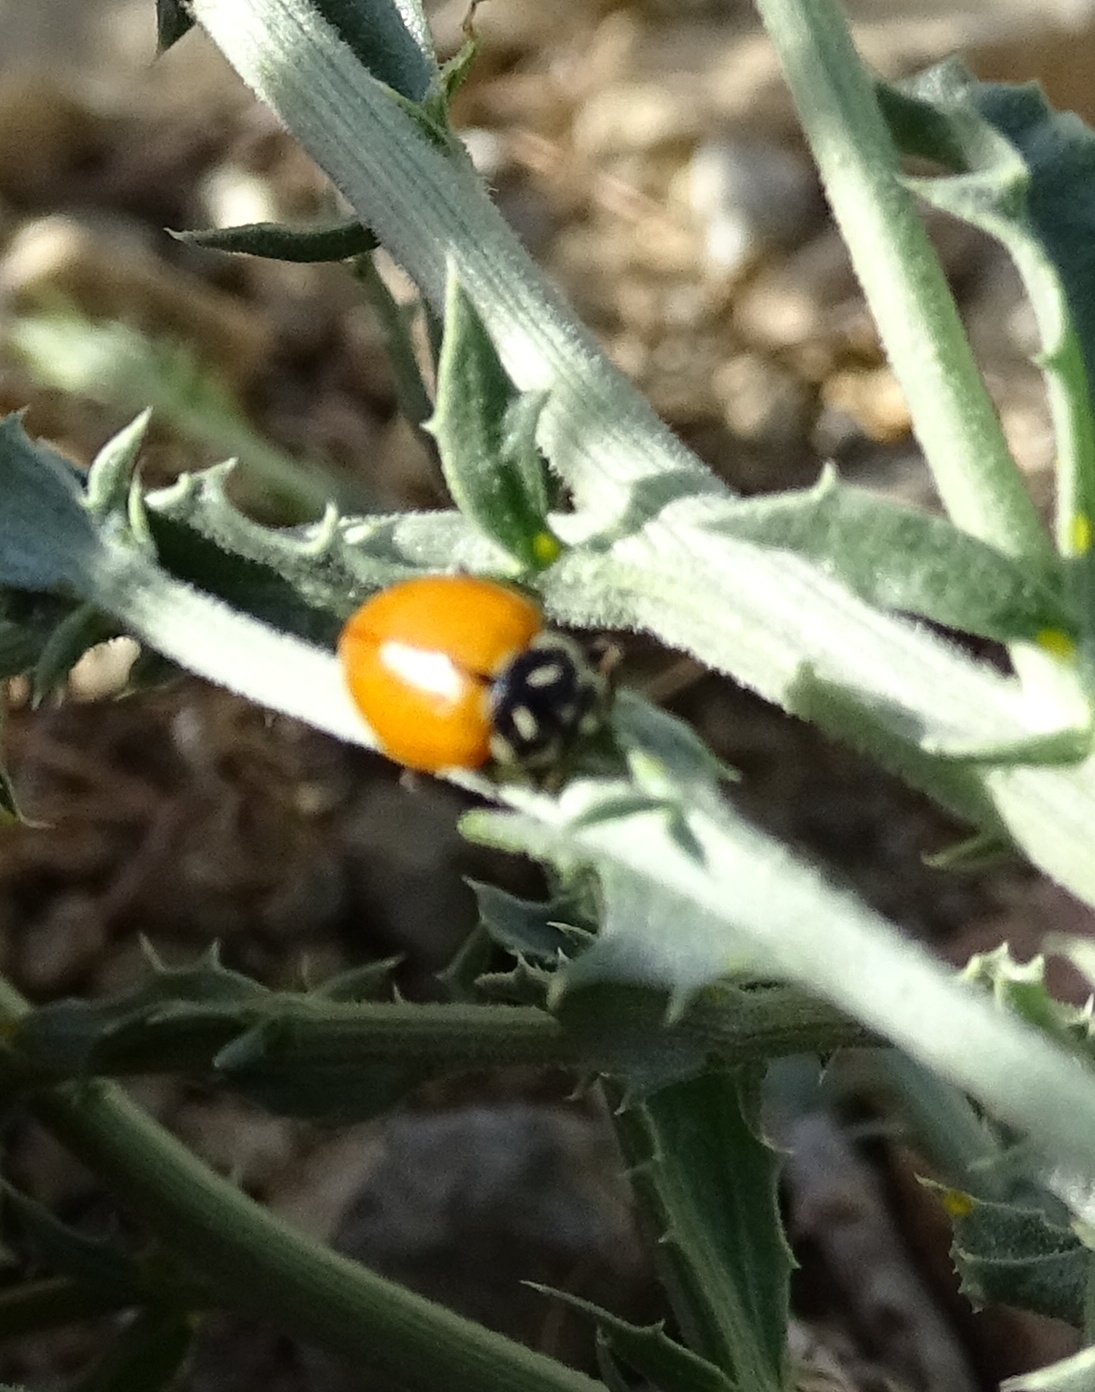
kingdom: Animalia
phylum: Arthropoda
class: Insecta
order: Coleoptera
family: Coccinellidae
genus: Hippodamia
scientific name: Hippodamia convergens
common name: Convergent lady beetle
